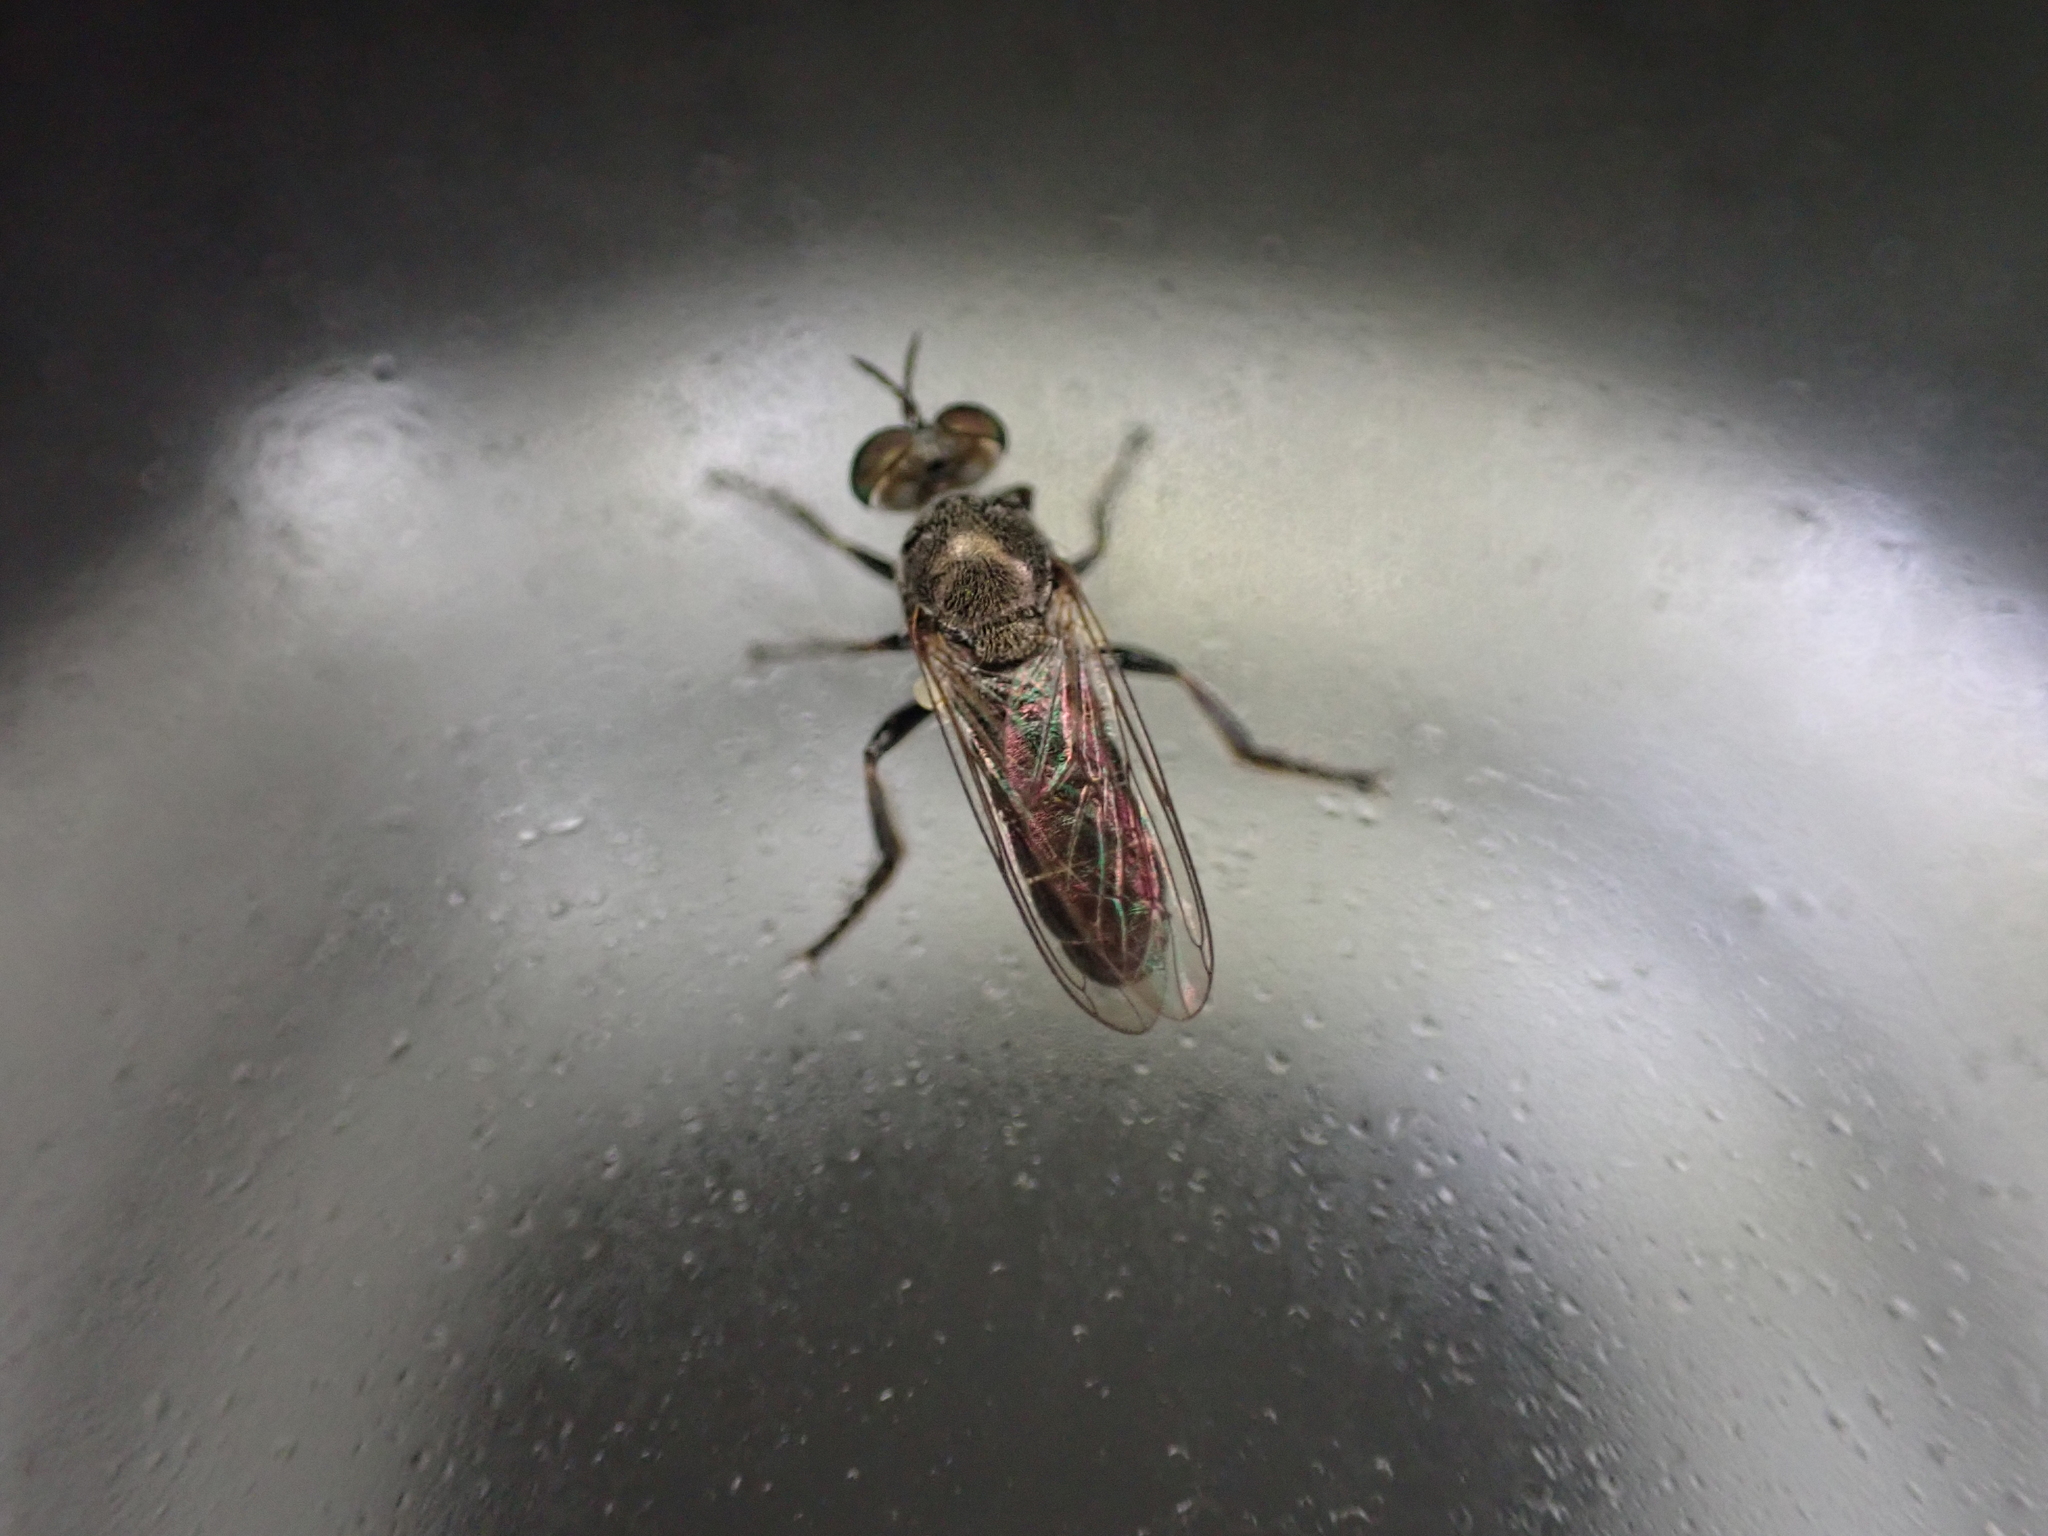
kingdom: Animalia
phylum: Arthropoda
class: Insecta
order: Diptera
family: Asilidae
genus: Atomosia
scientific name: Atomosia puella
